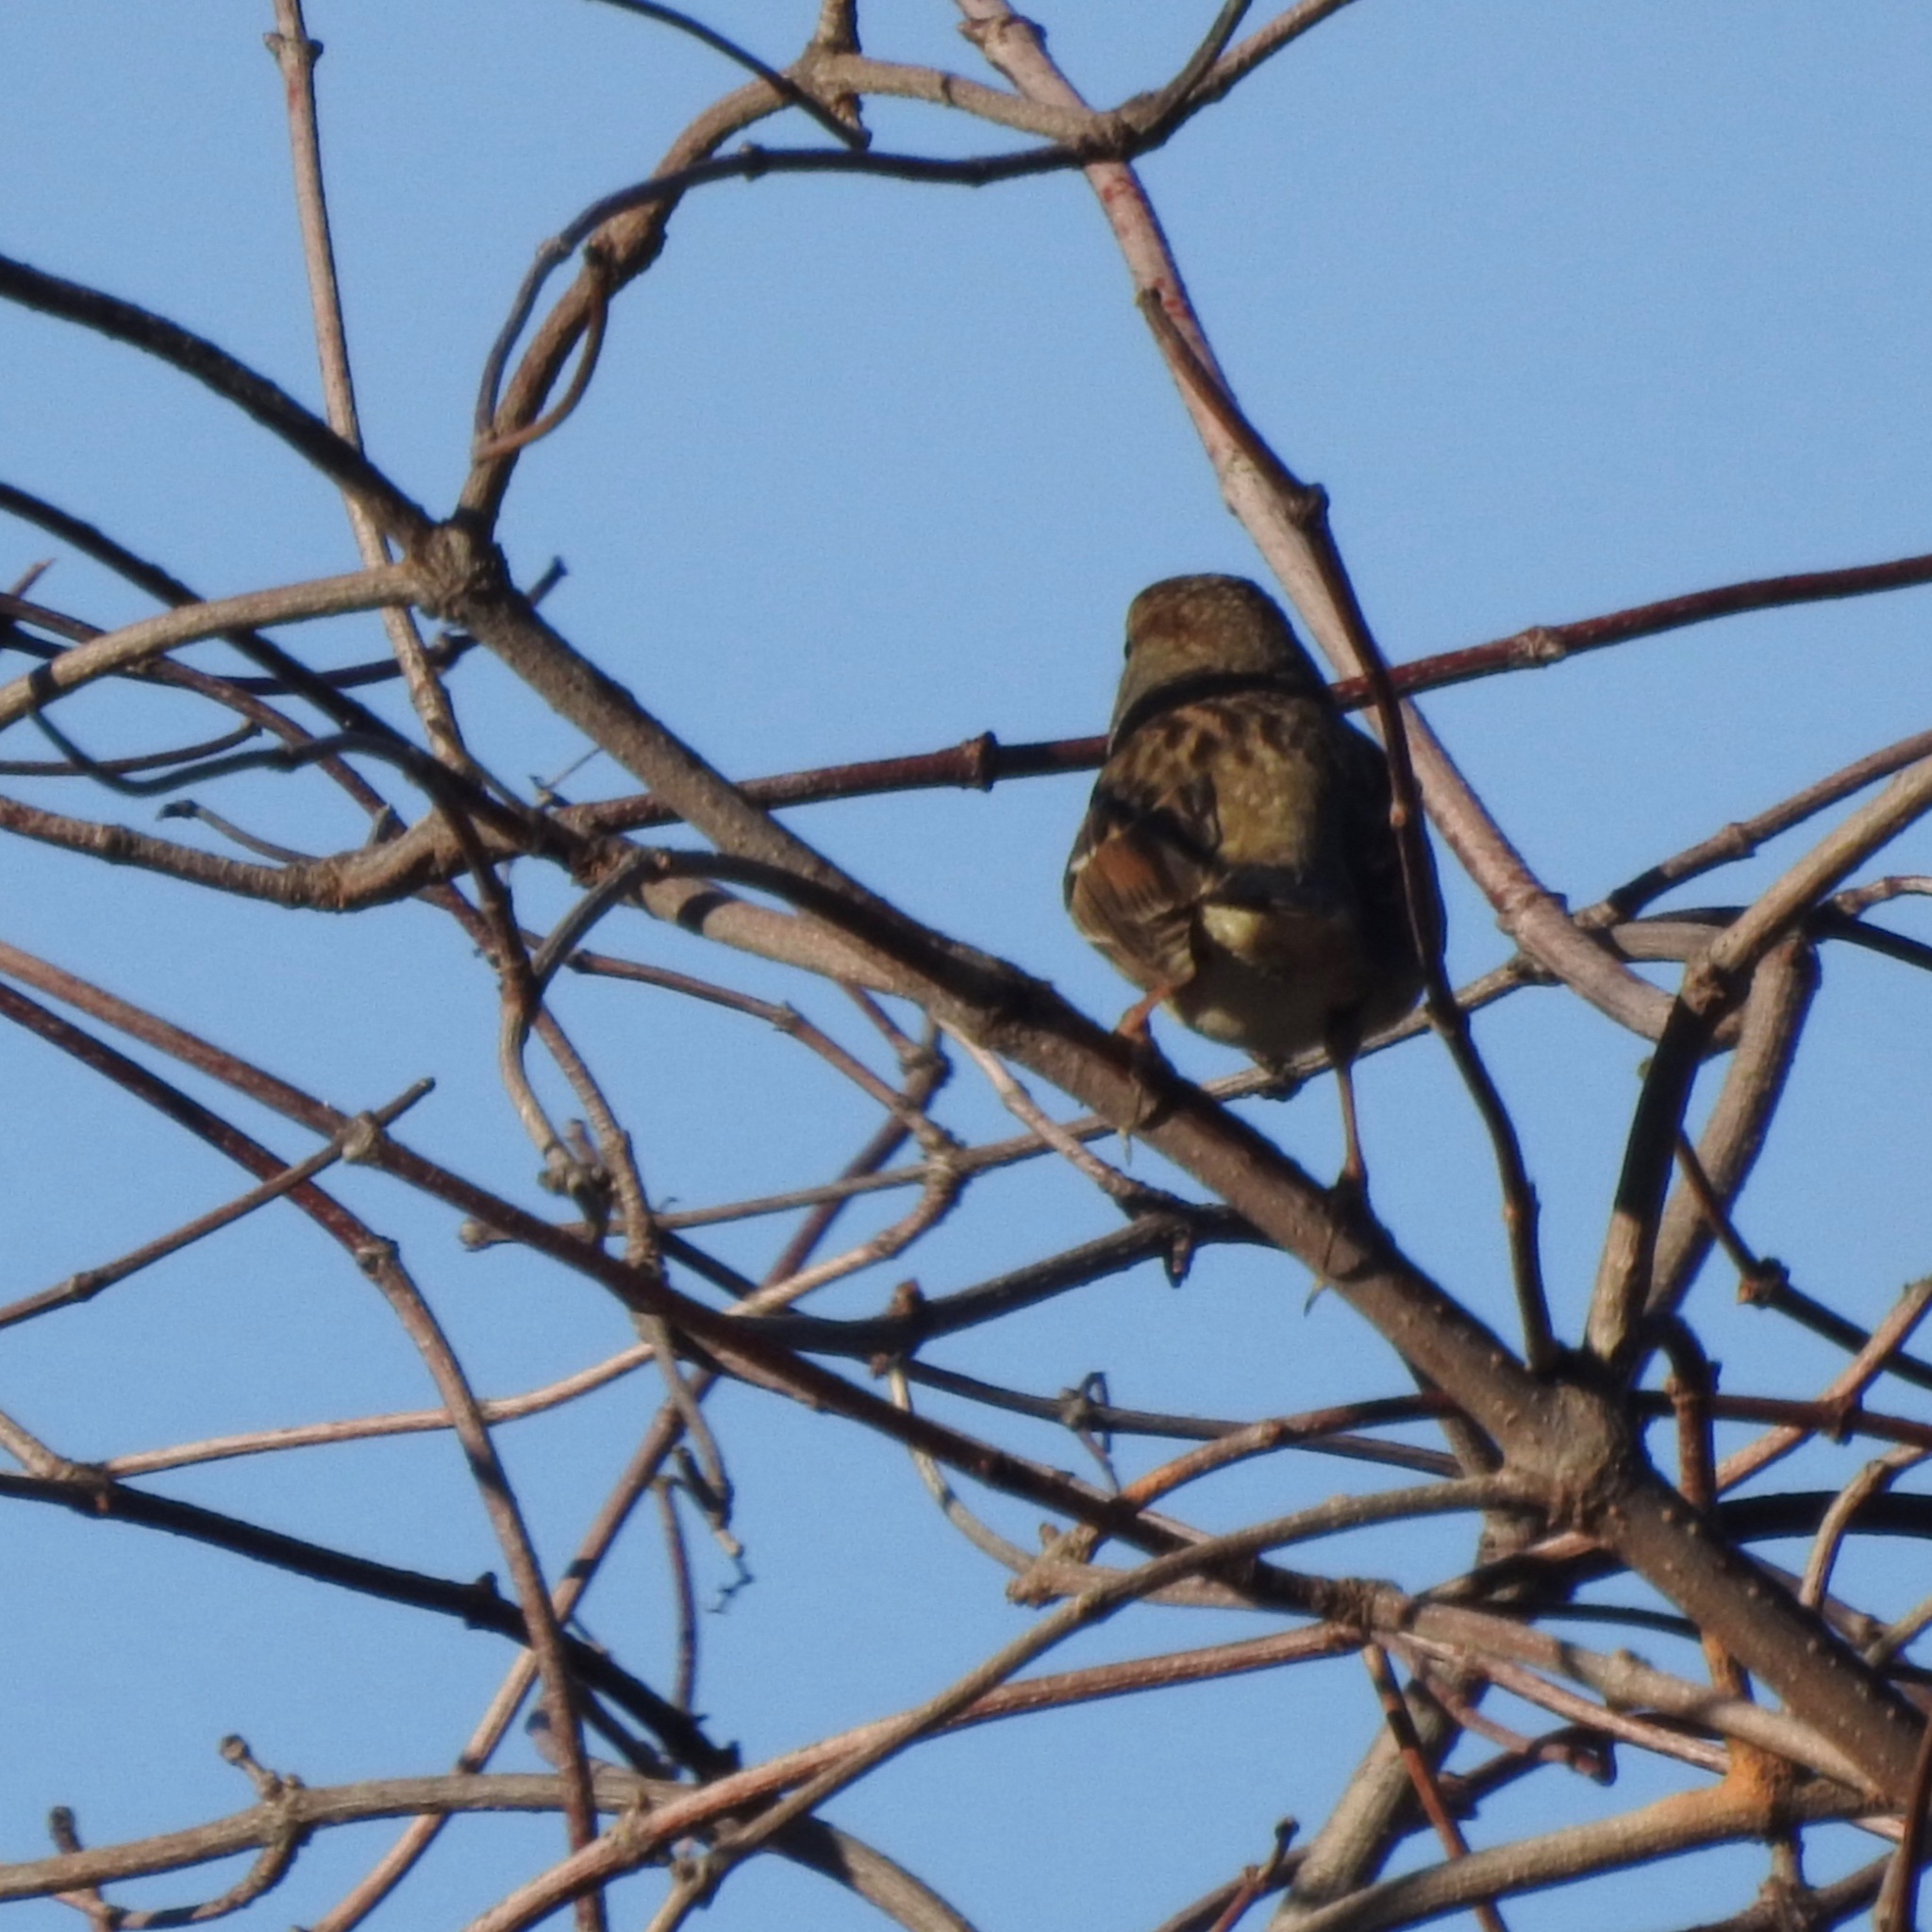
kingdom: Animalia
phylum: Chordata
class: Aves
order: Passeriformes
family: Passerellidae
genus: Zonotrichia
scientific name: Zonotrichia leucophrys
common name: White-crowned sparrow
